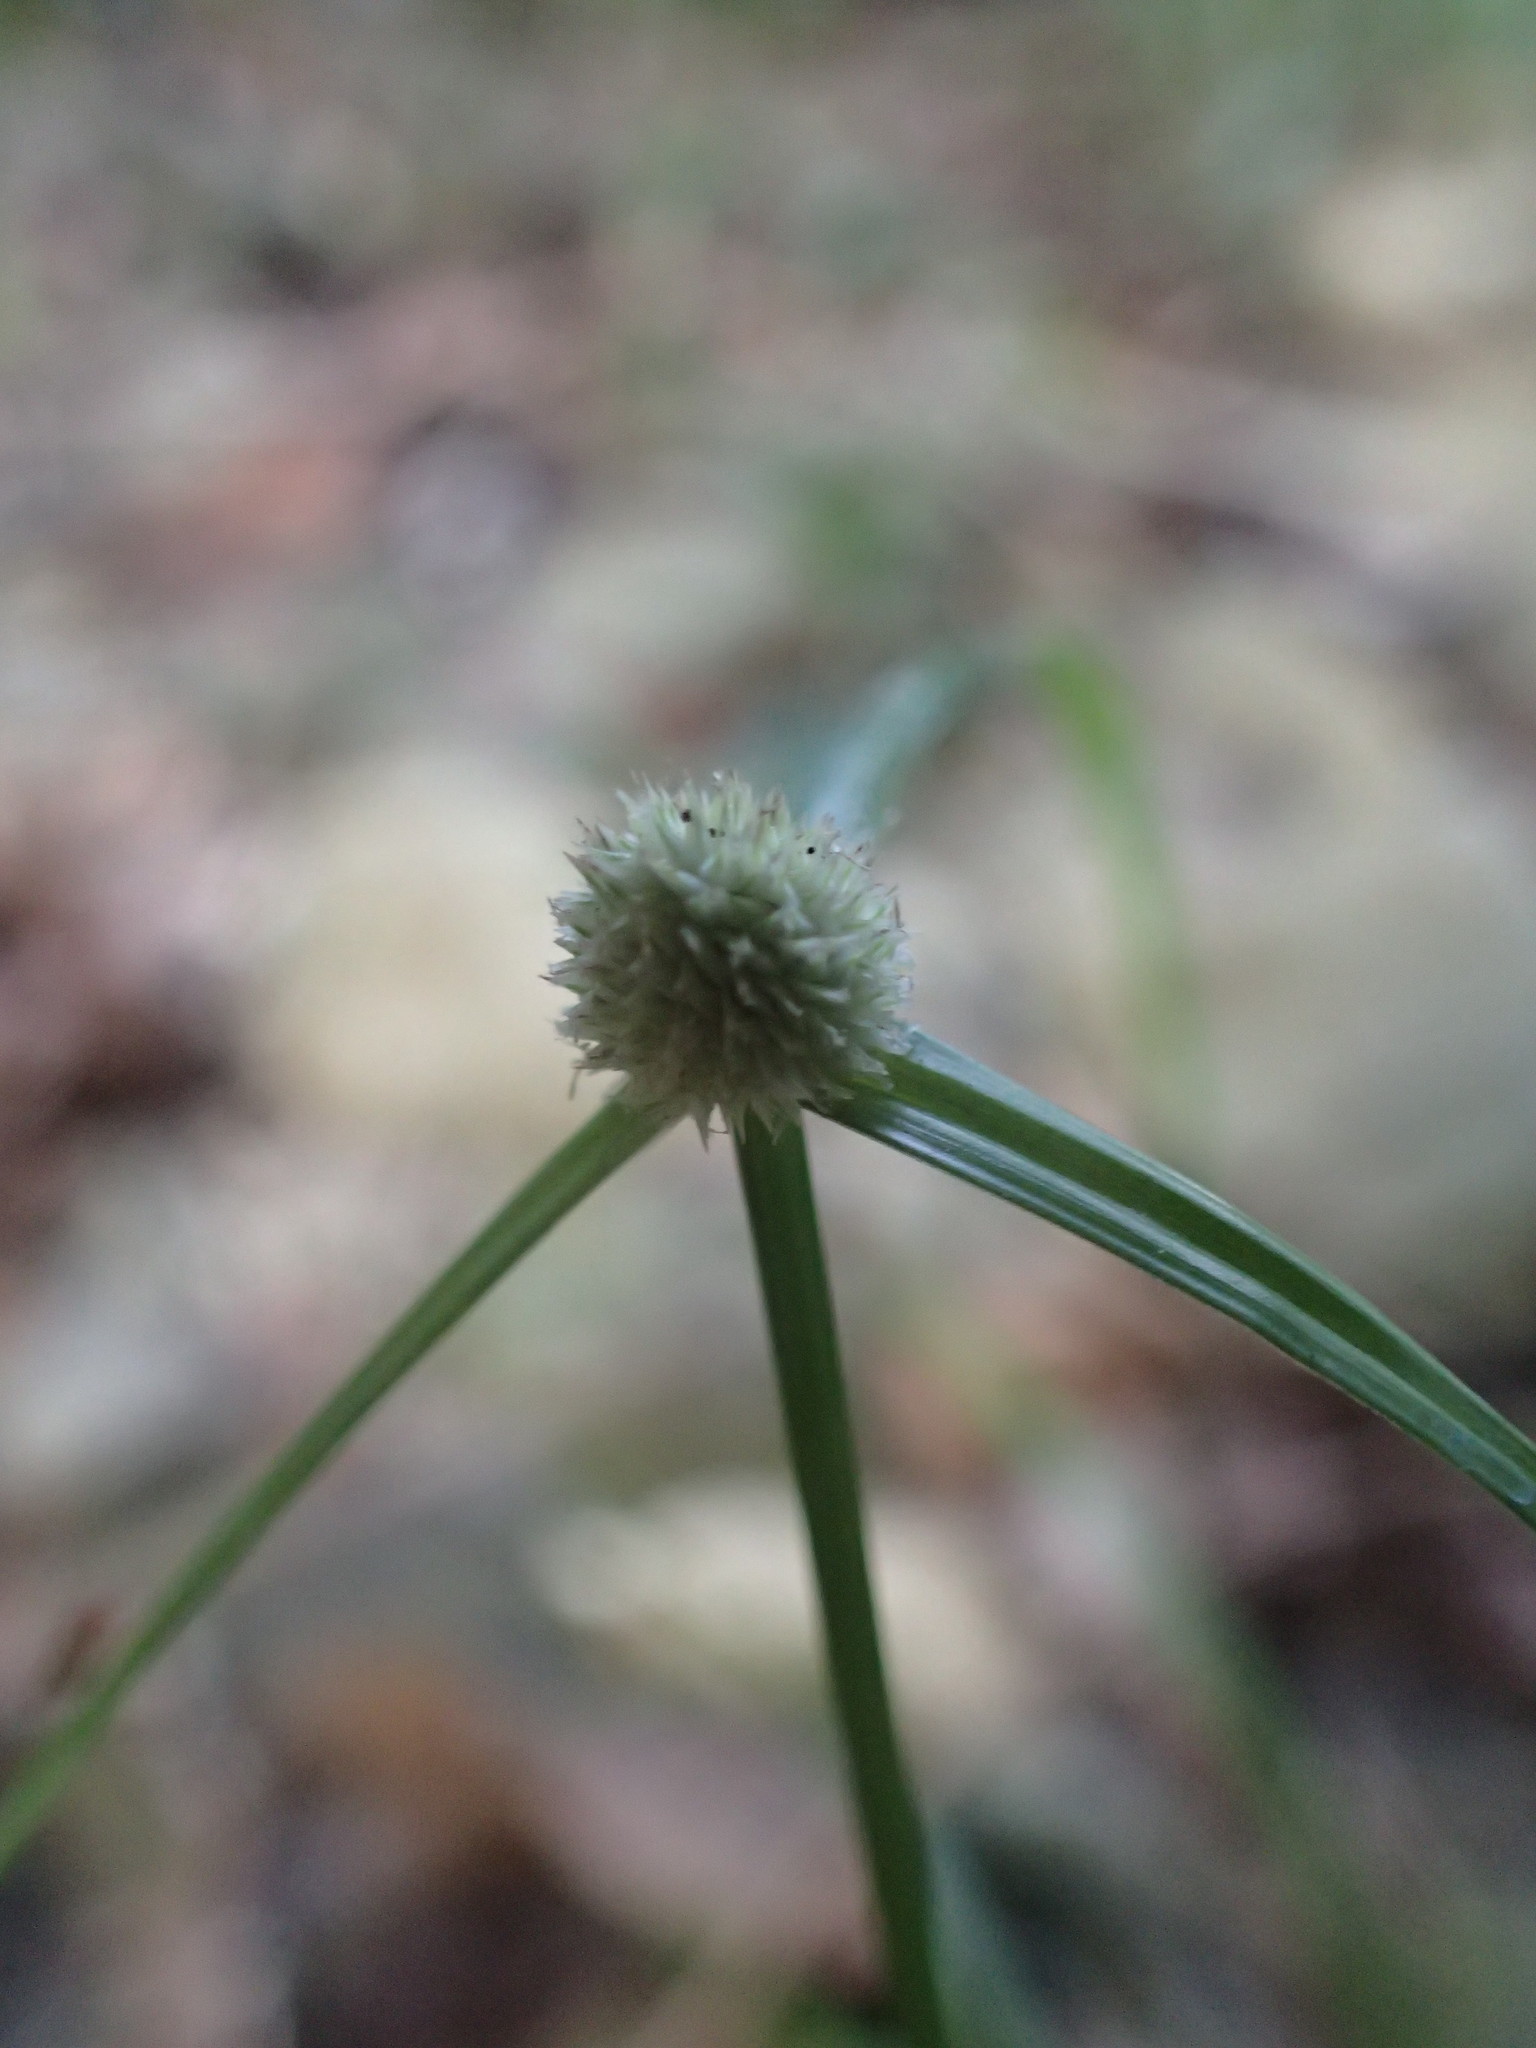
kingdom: Plantae
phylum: Tracheophyta
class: Liliopsida
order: Poales
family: Cyperaceae
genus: Cyperus
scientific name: Cyperus mindorensis
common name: Flatsedge
